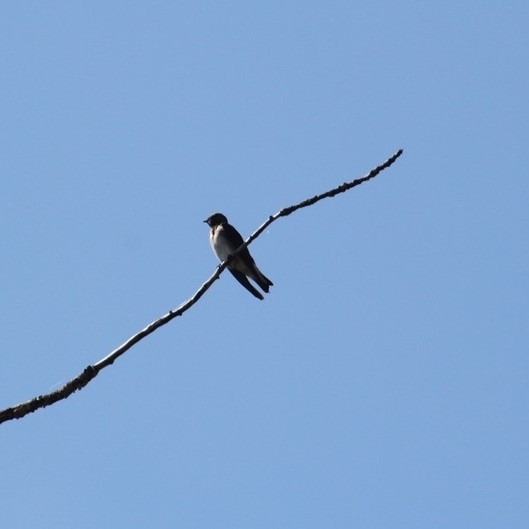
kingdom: Animalia
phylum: Chordata
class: Aves
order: Passeriformes
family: Hirundinidae
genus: Stelgidopteryx
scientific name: Stelgidopteryx serripennis
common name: Northern rough-winged swallow
